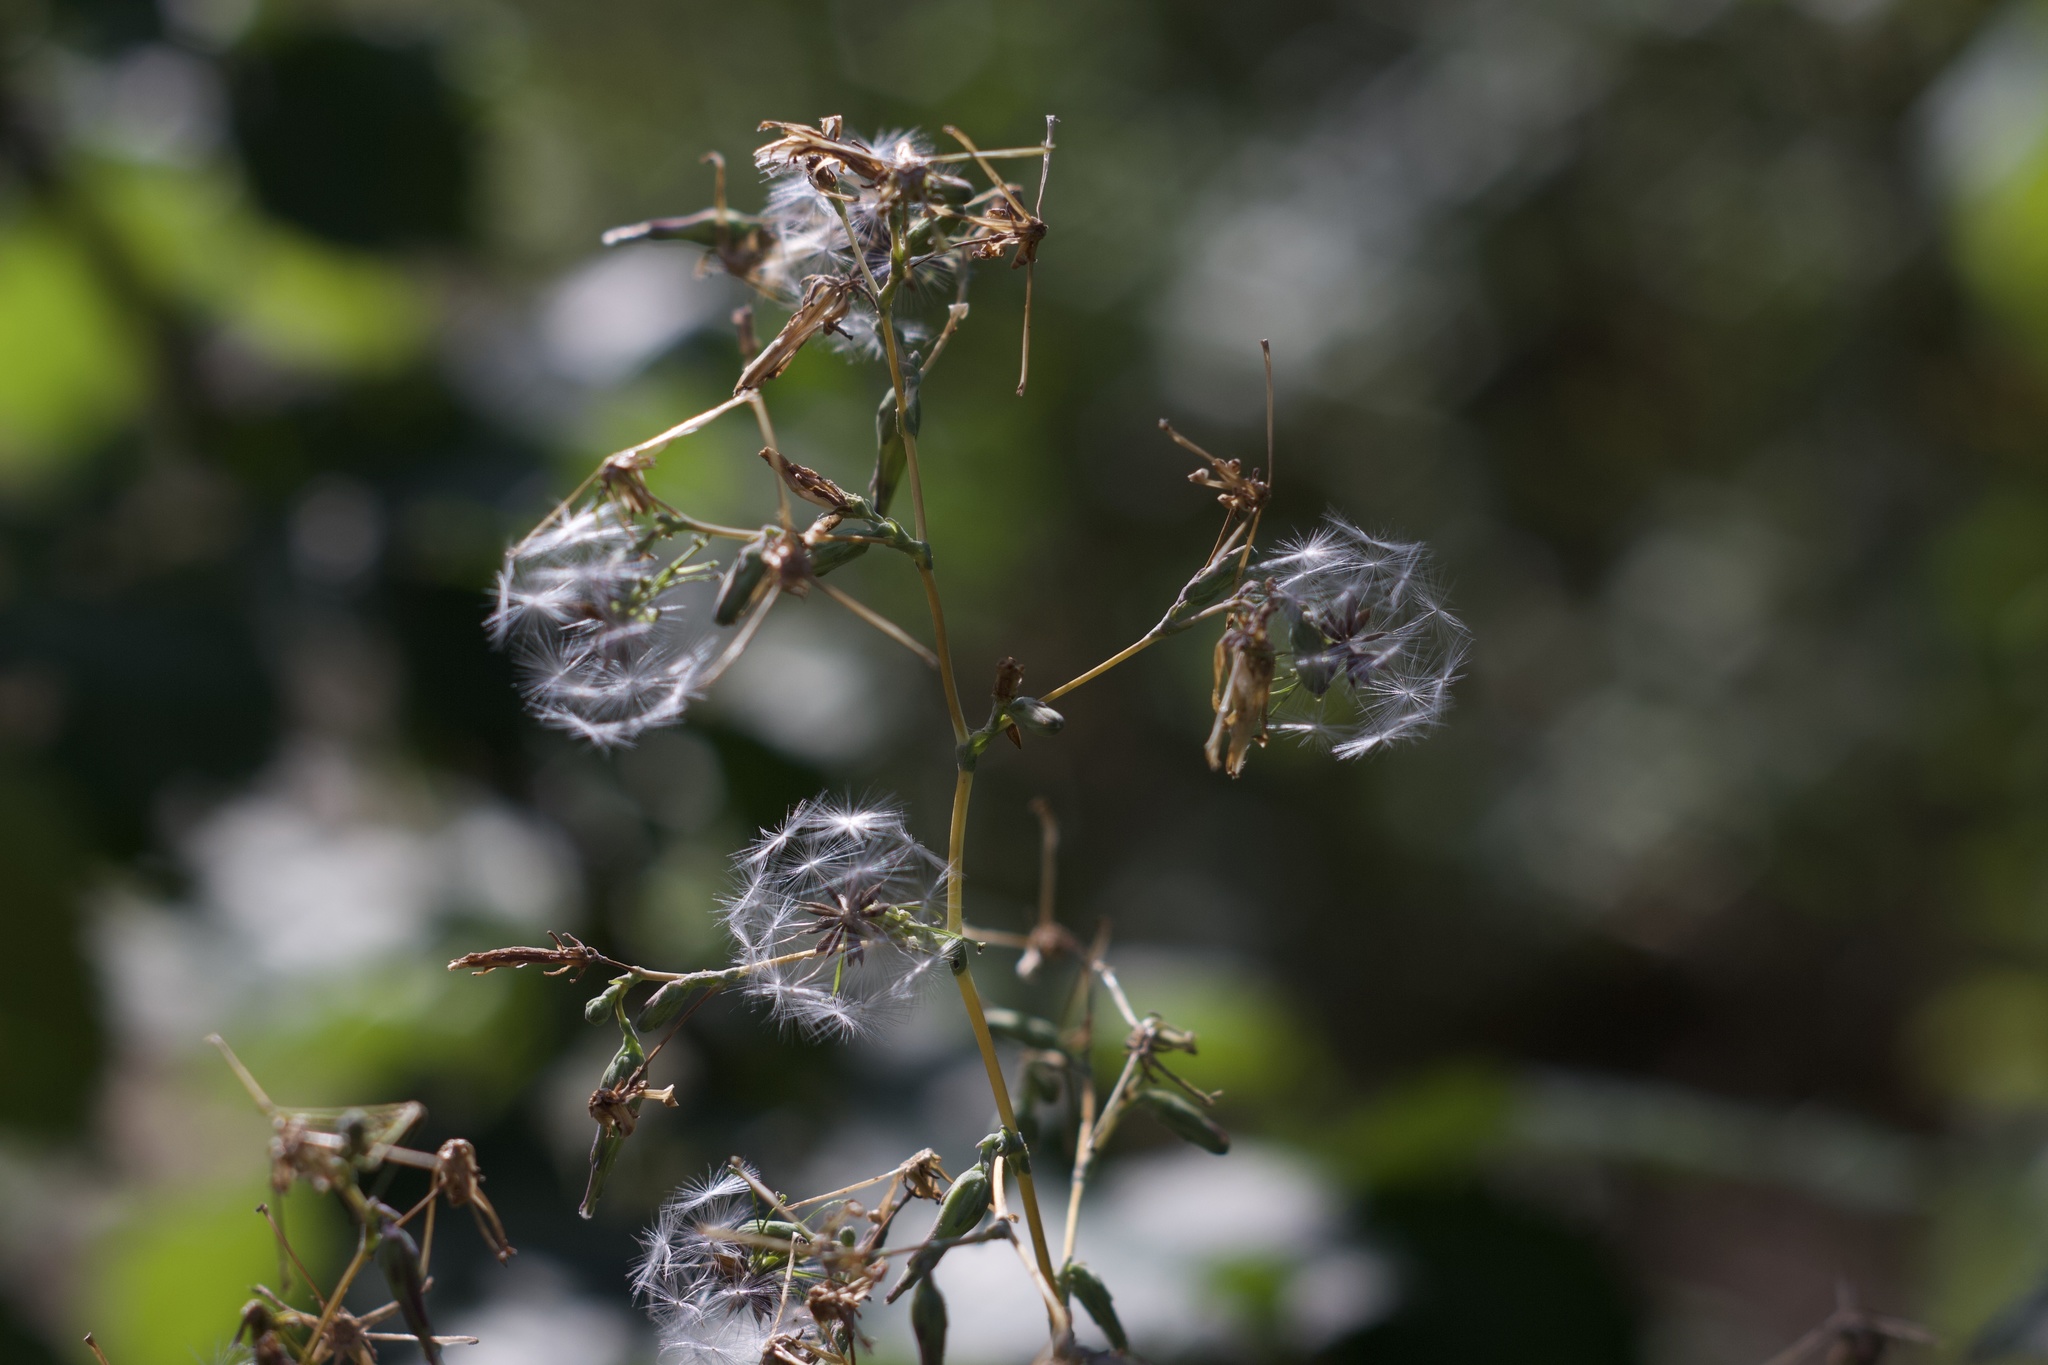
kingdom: Plantae
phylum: Tracheophyta
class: Magnoliopsida
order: Asterales
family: Asteraceae
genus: Lactuca
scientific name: Lactuca serriola
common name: Prickly lettuce
